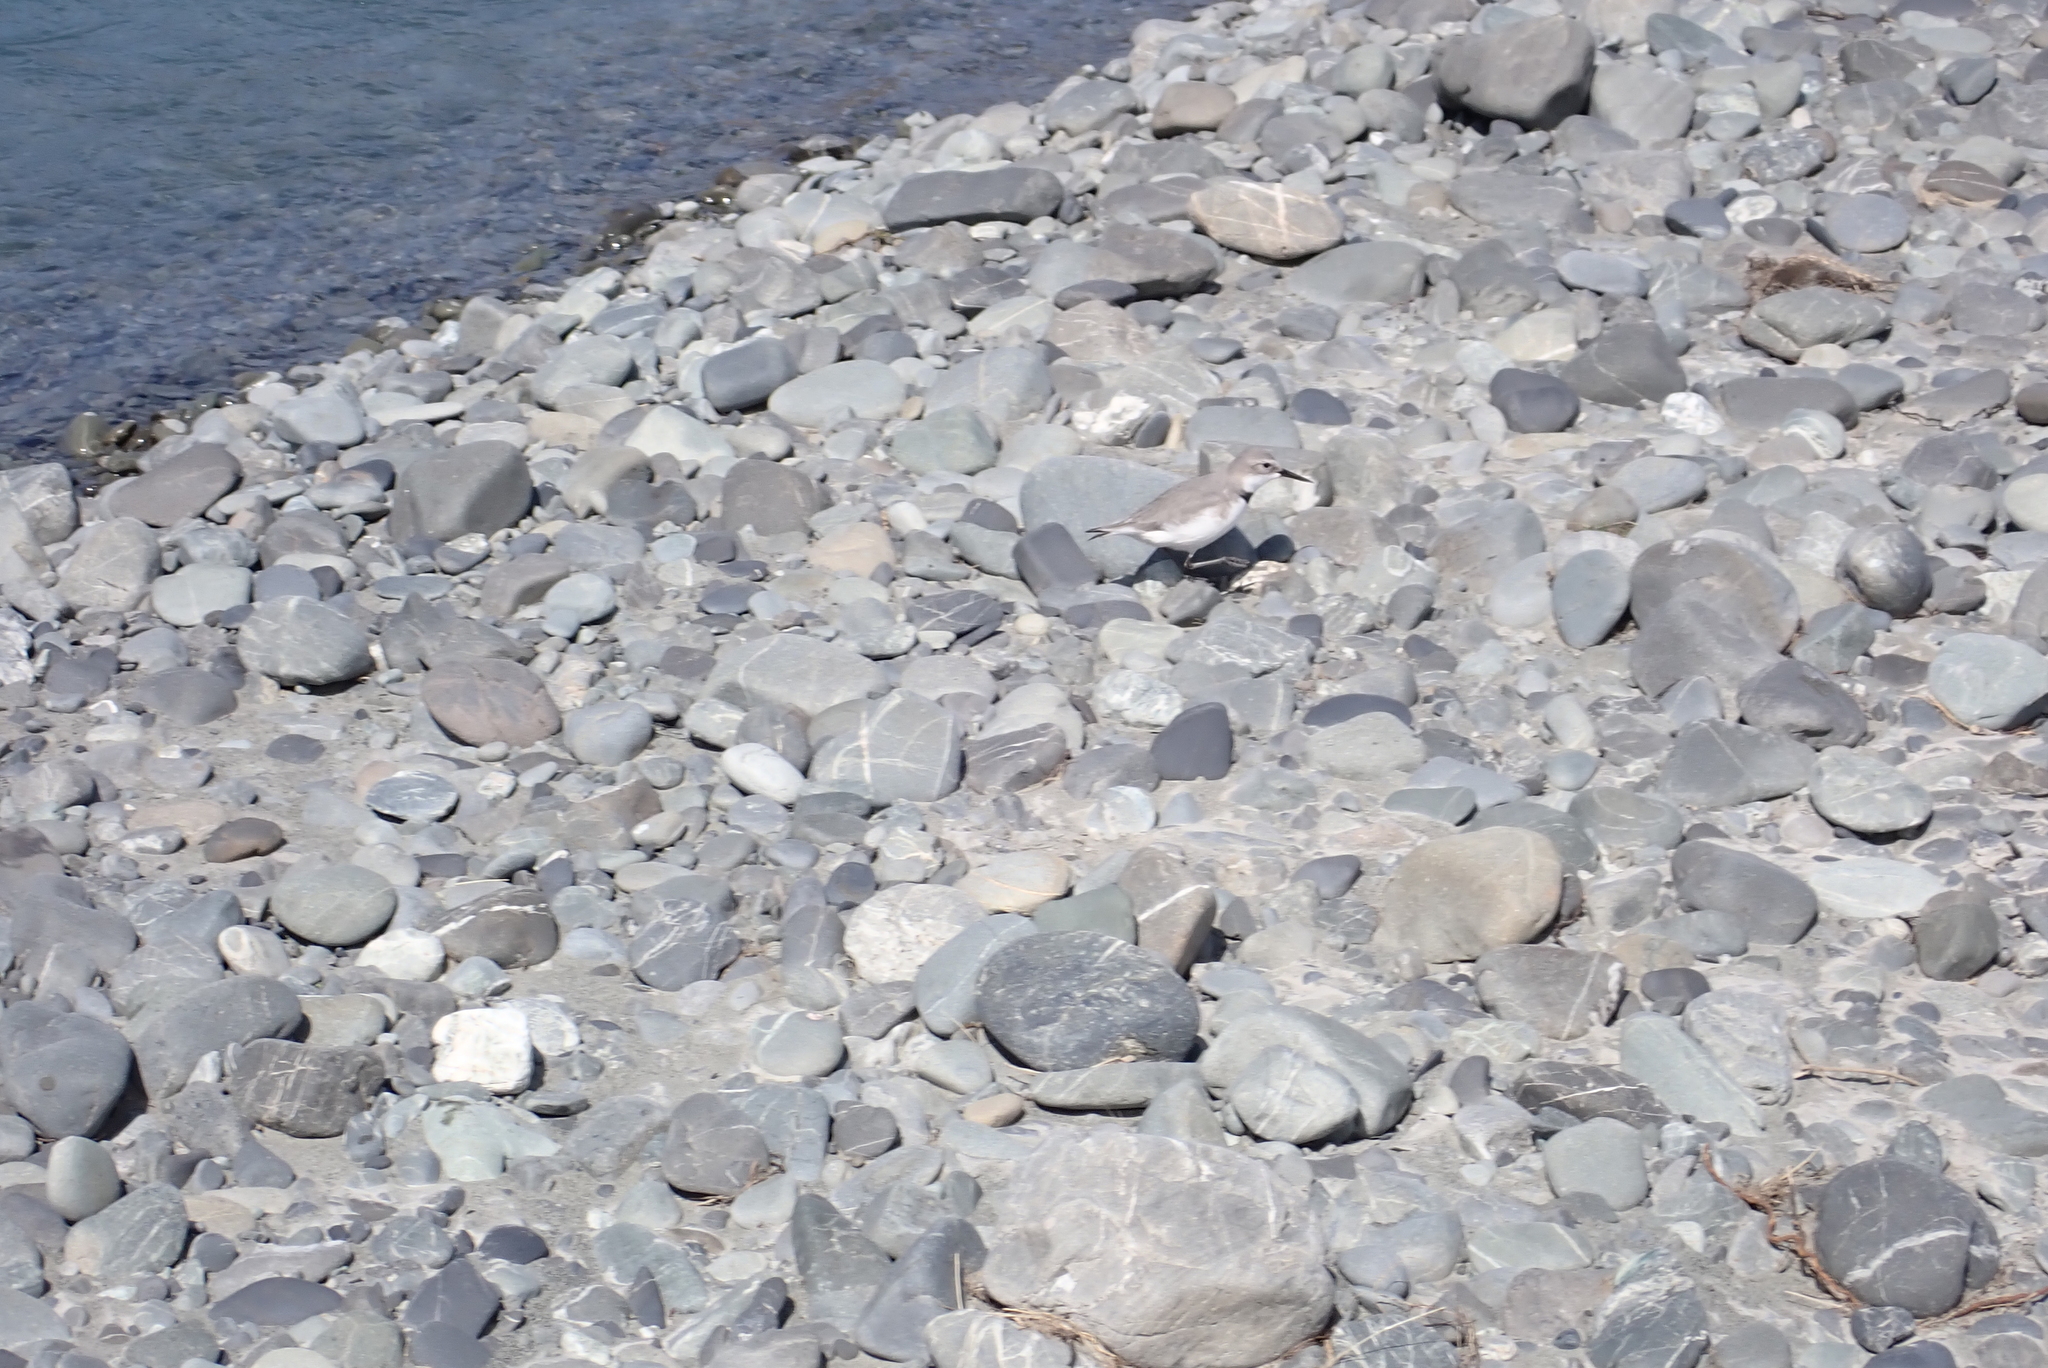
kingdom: Animalia
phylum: Chordata
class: Aves
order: Charadriiformes
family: Charadriidae
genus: Anarhynchus
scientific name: Anarhynchus frontalis
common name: Wrybill
